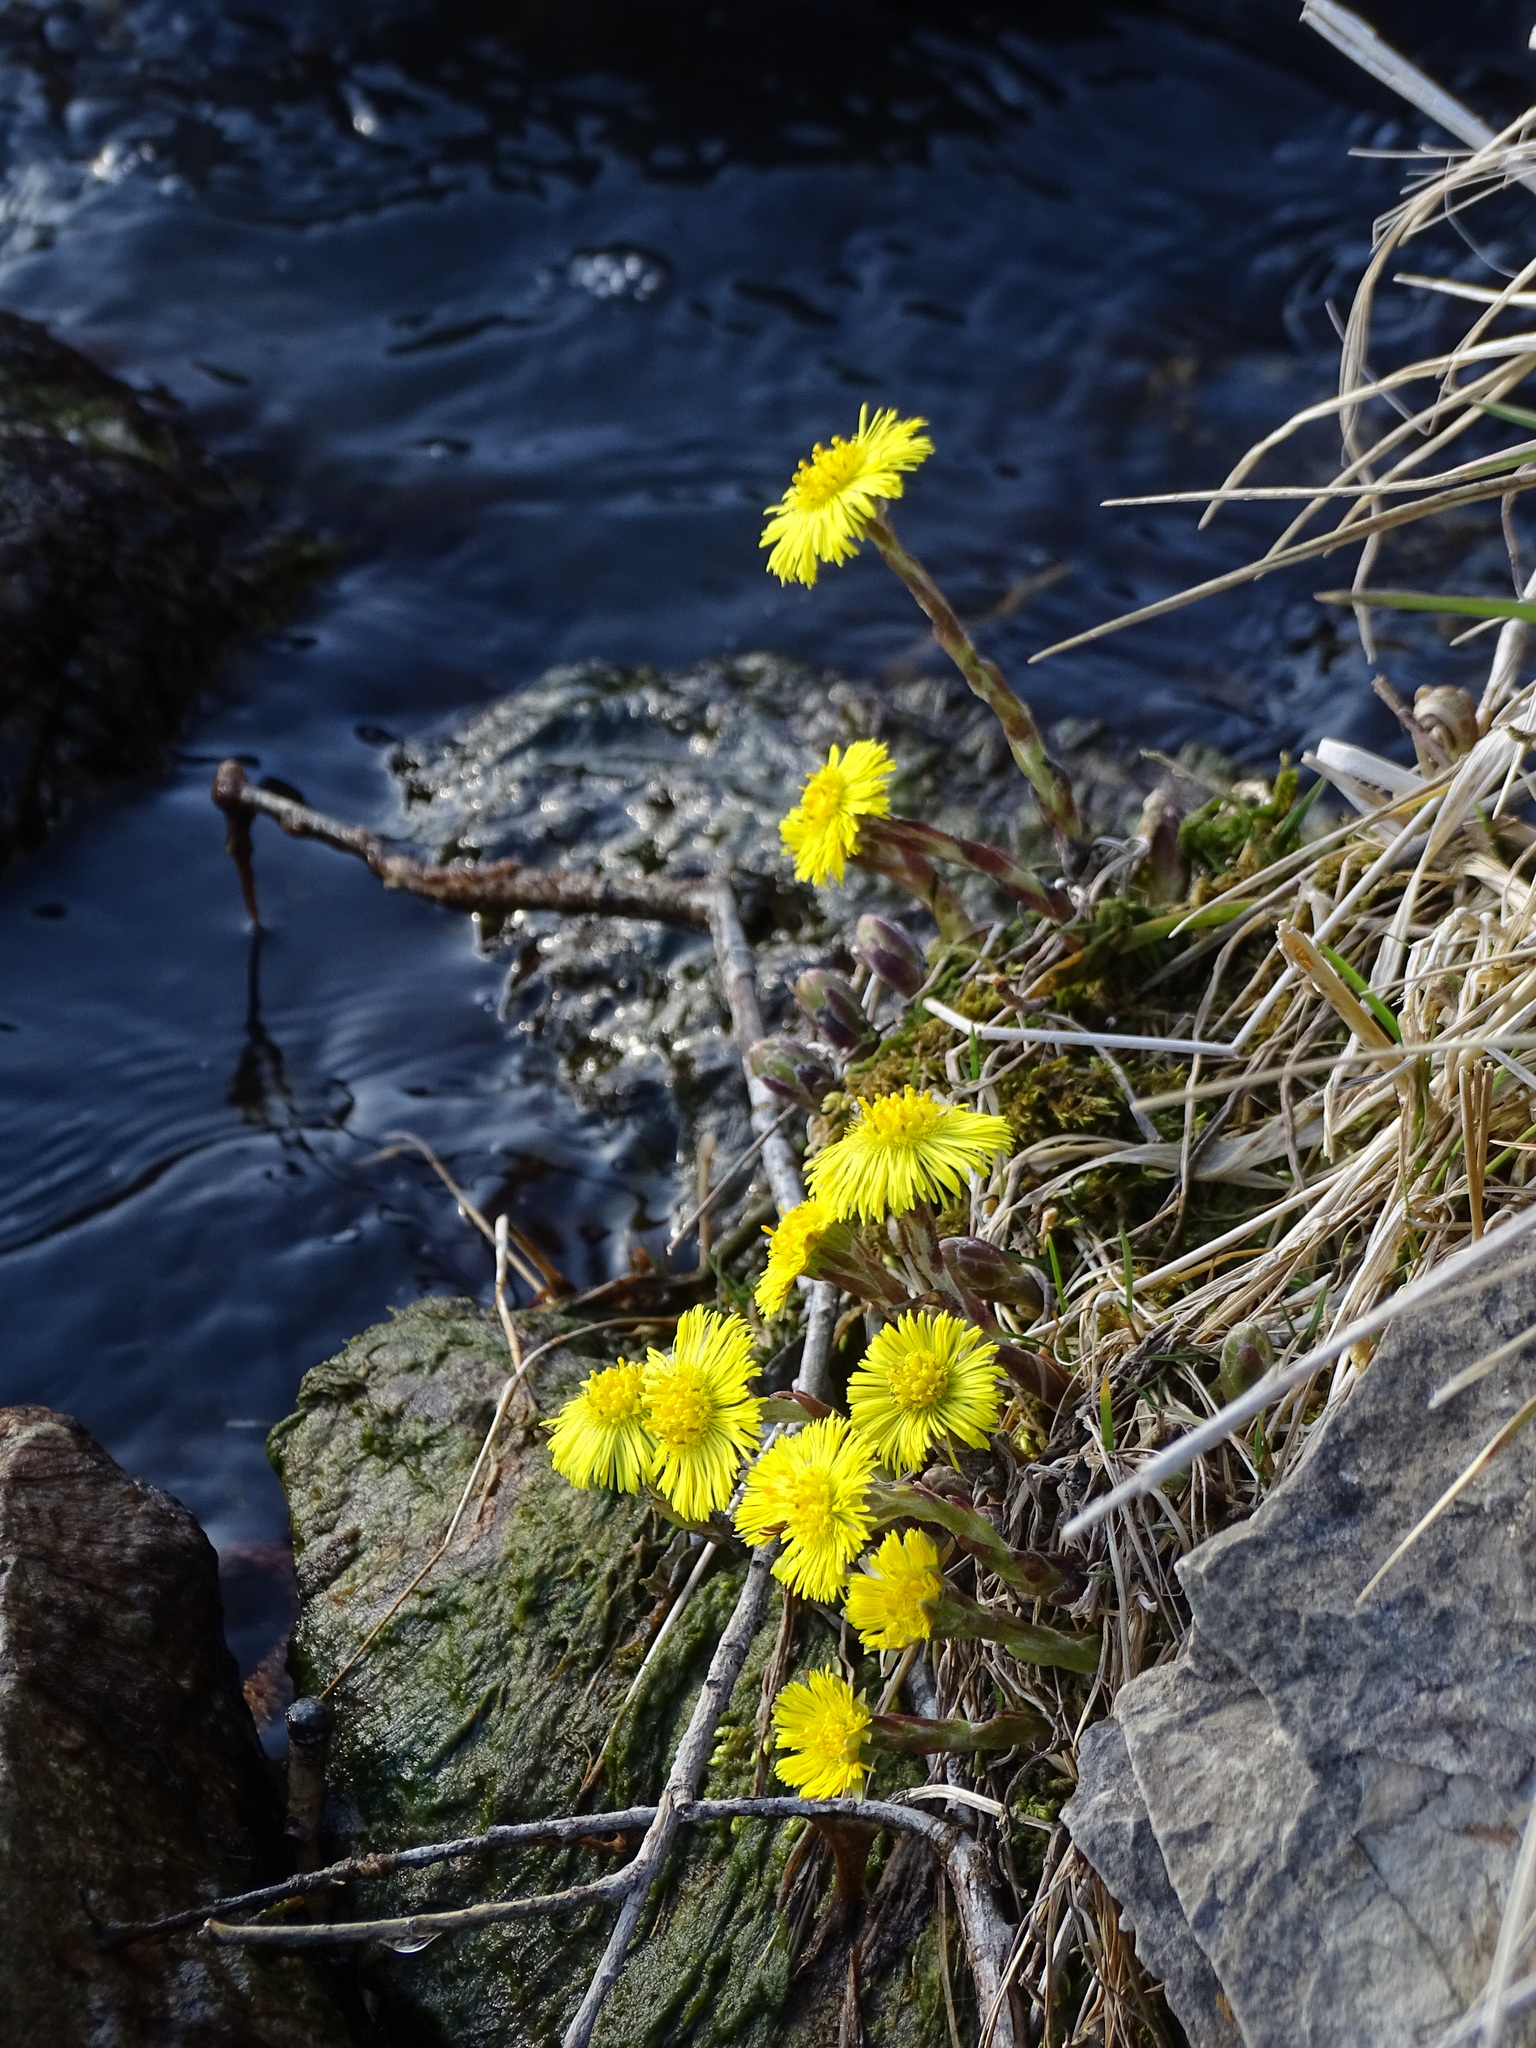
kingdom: Plantae
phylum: Tracheophyta
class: Magnoliopsida
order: Asterales
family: Asteraceae
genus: Tussilago
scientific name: Tussilago farfara
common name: Coltsfoot
